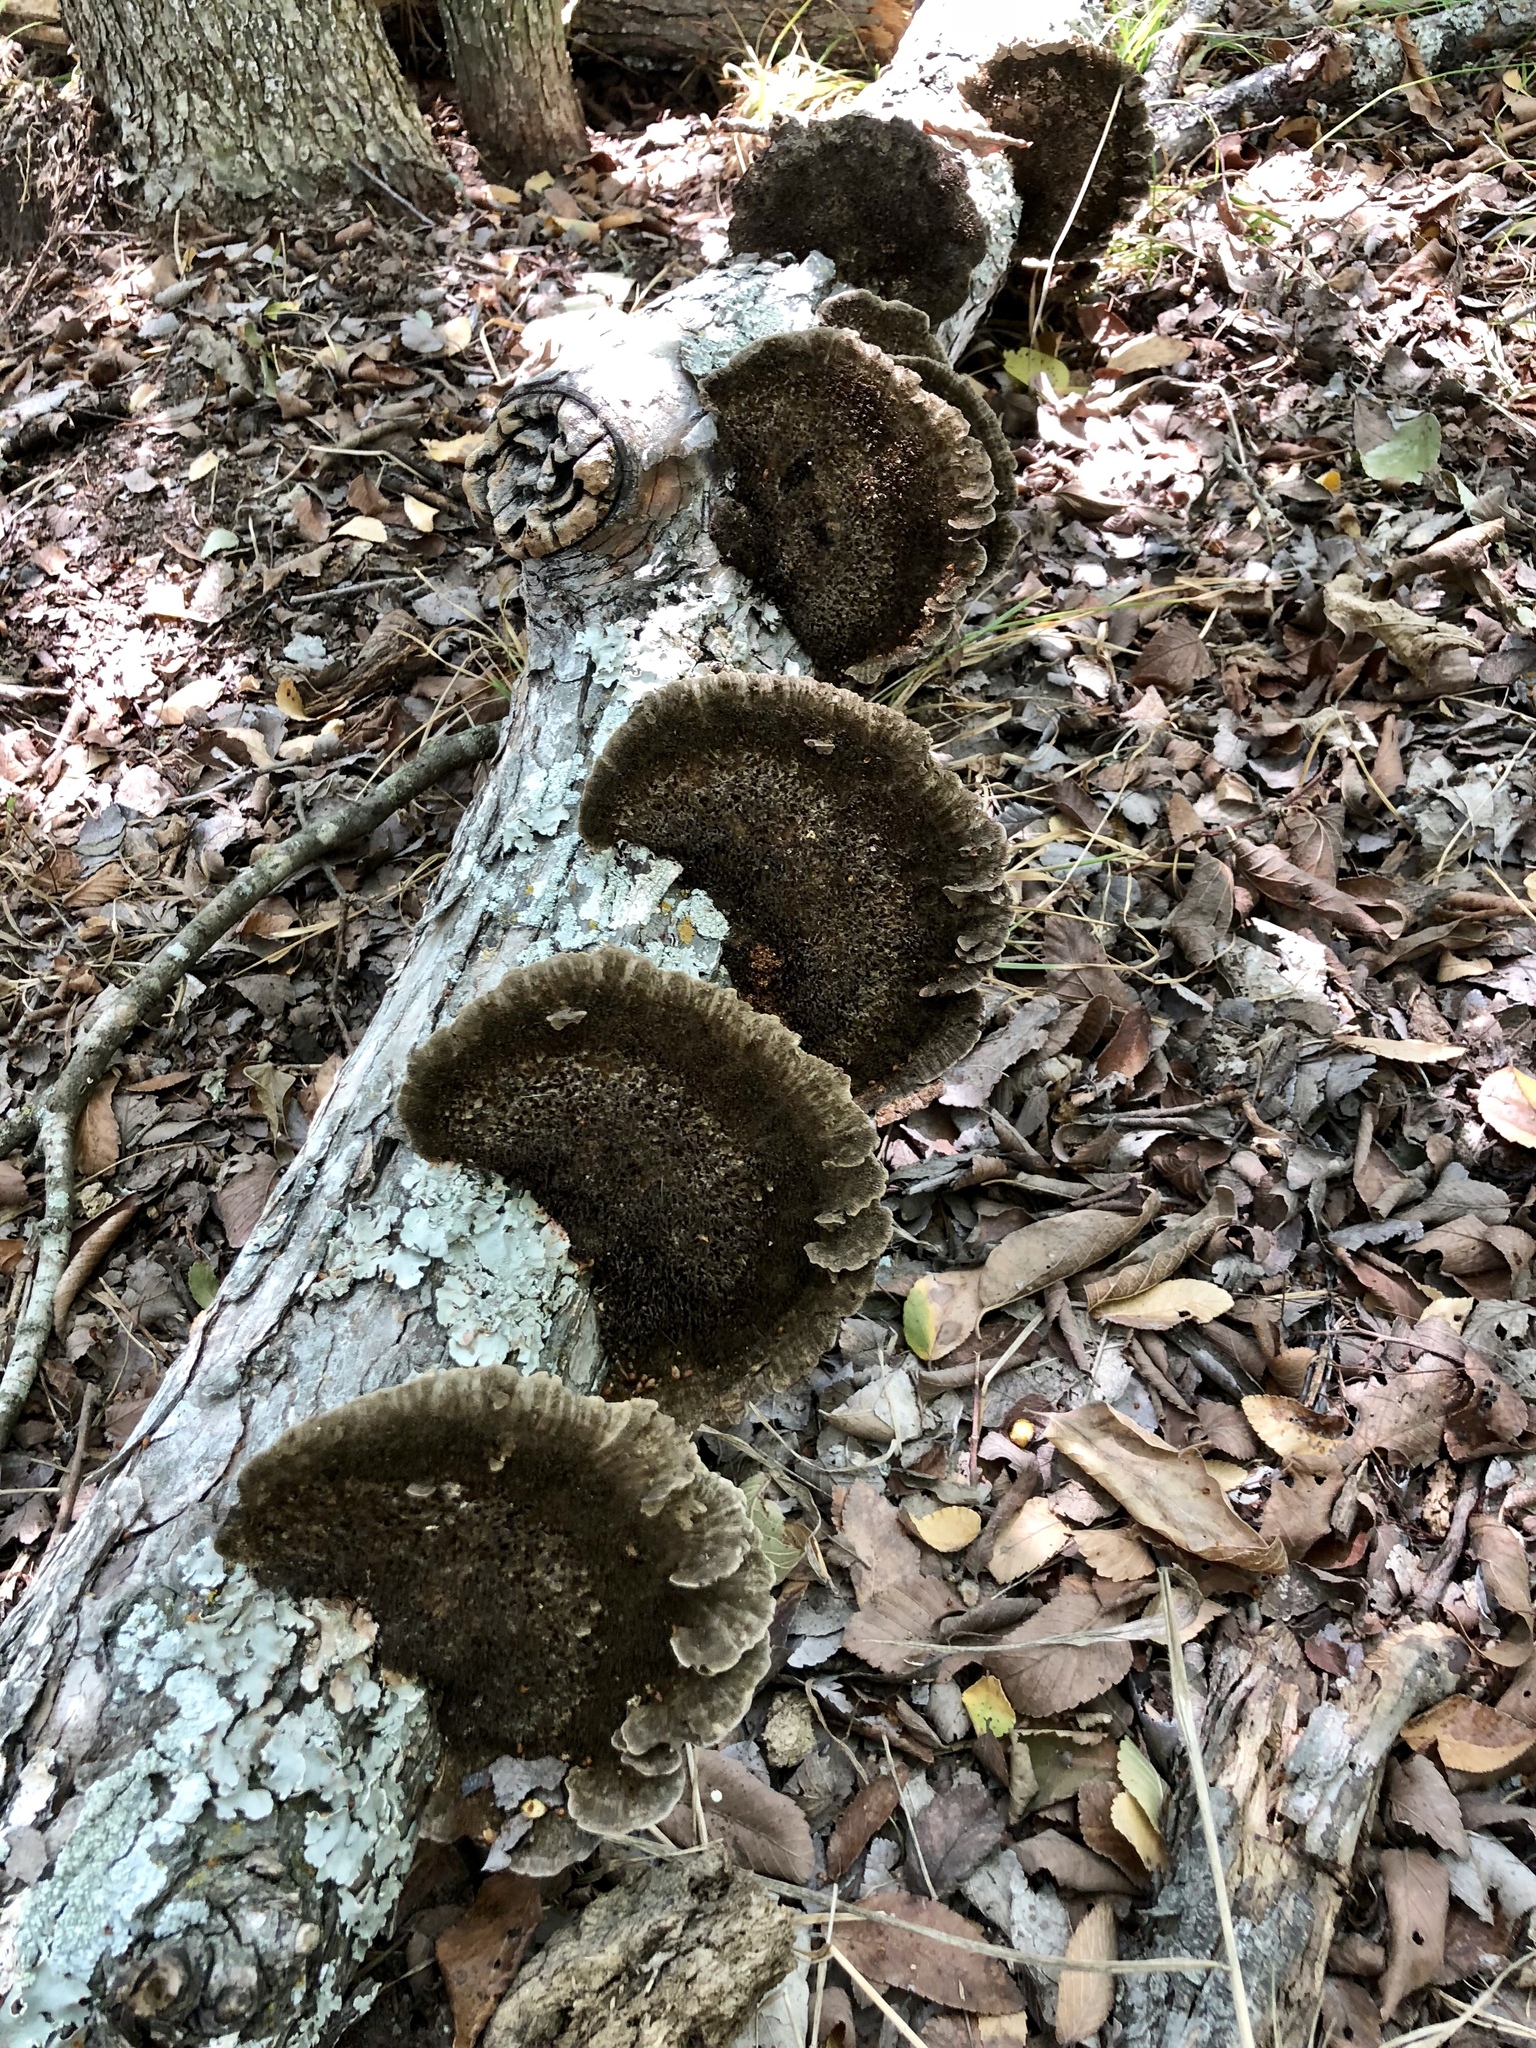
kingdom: Fungi
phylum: Basidiomycota
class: Agaricomycetes
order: Polyporales
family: Cerrenaceae
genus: Cerrena
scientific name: Cerrena hydnoides
